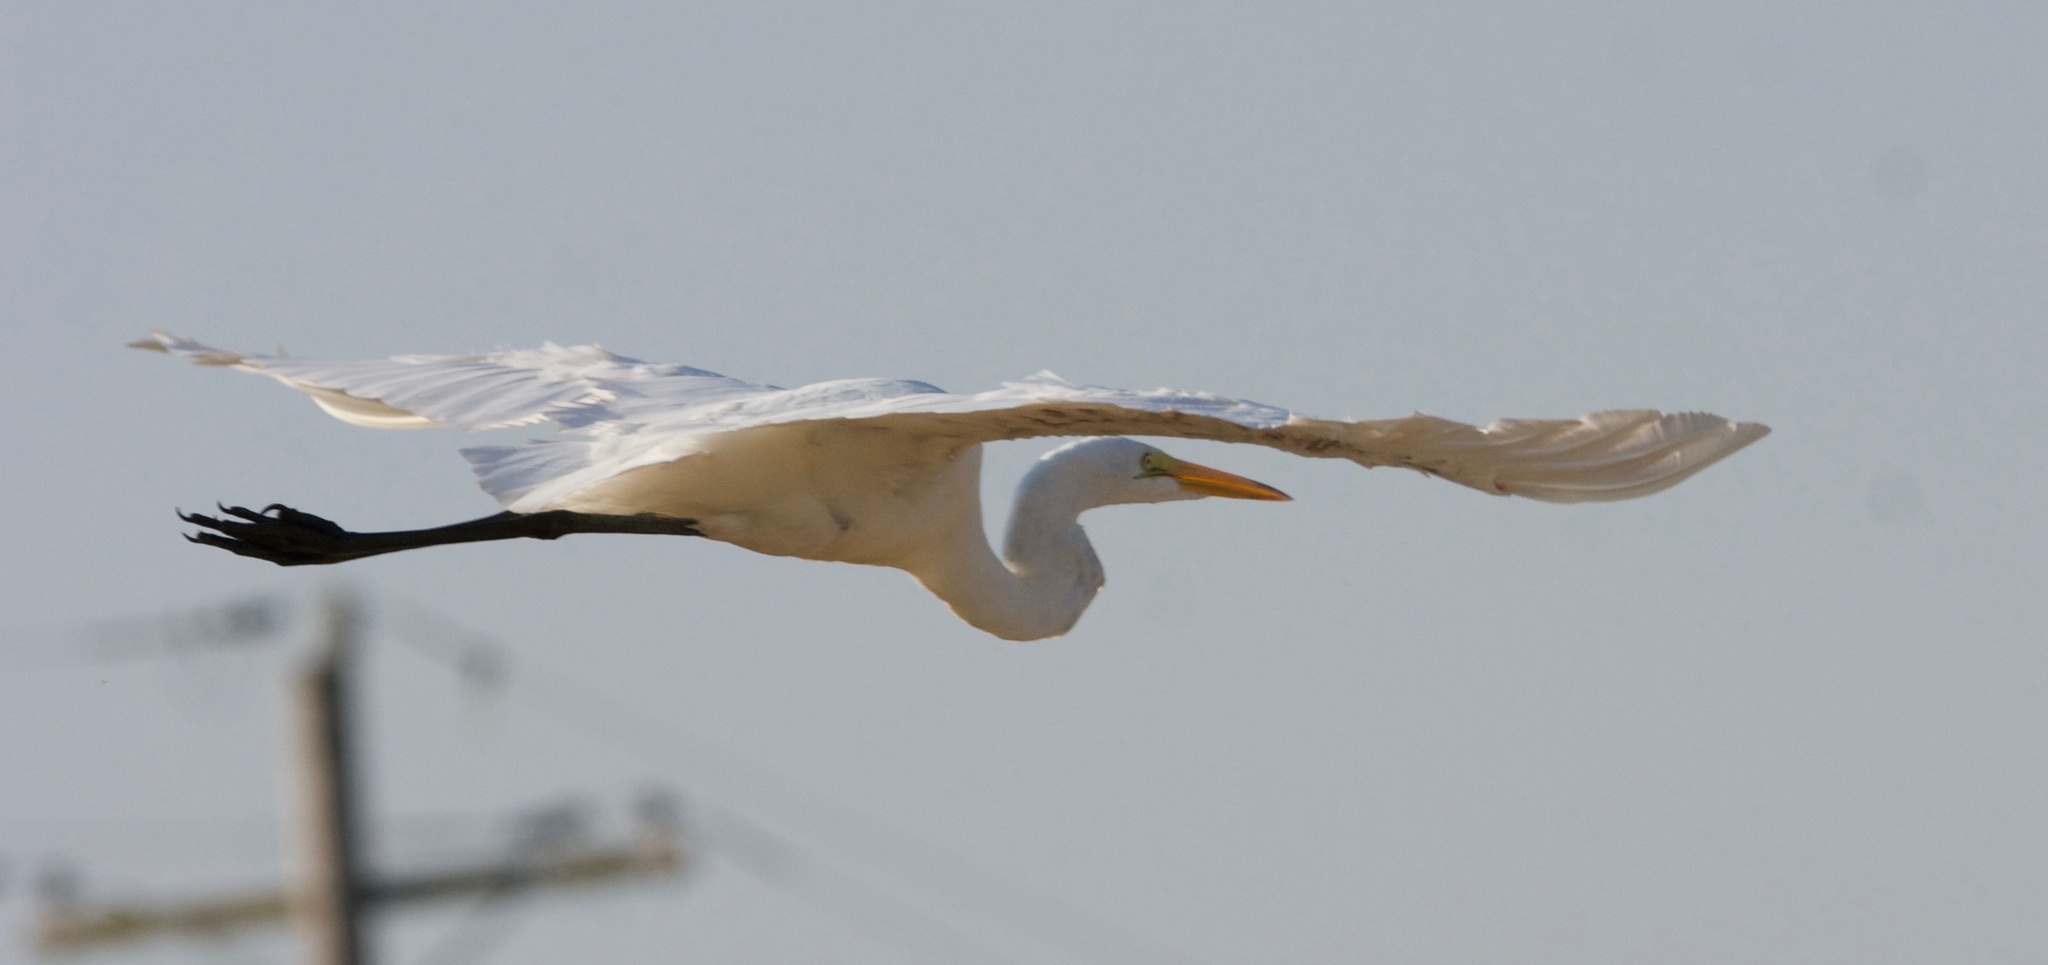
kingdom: Animalia
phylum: Chordata
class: Aves
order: Pelecaniformes
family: Ardeidae
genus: Ardea
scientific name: Ardea alba
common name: Great egret
